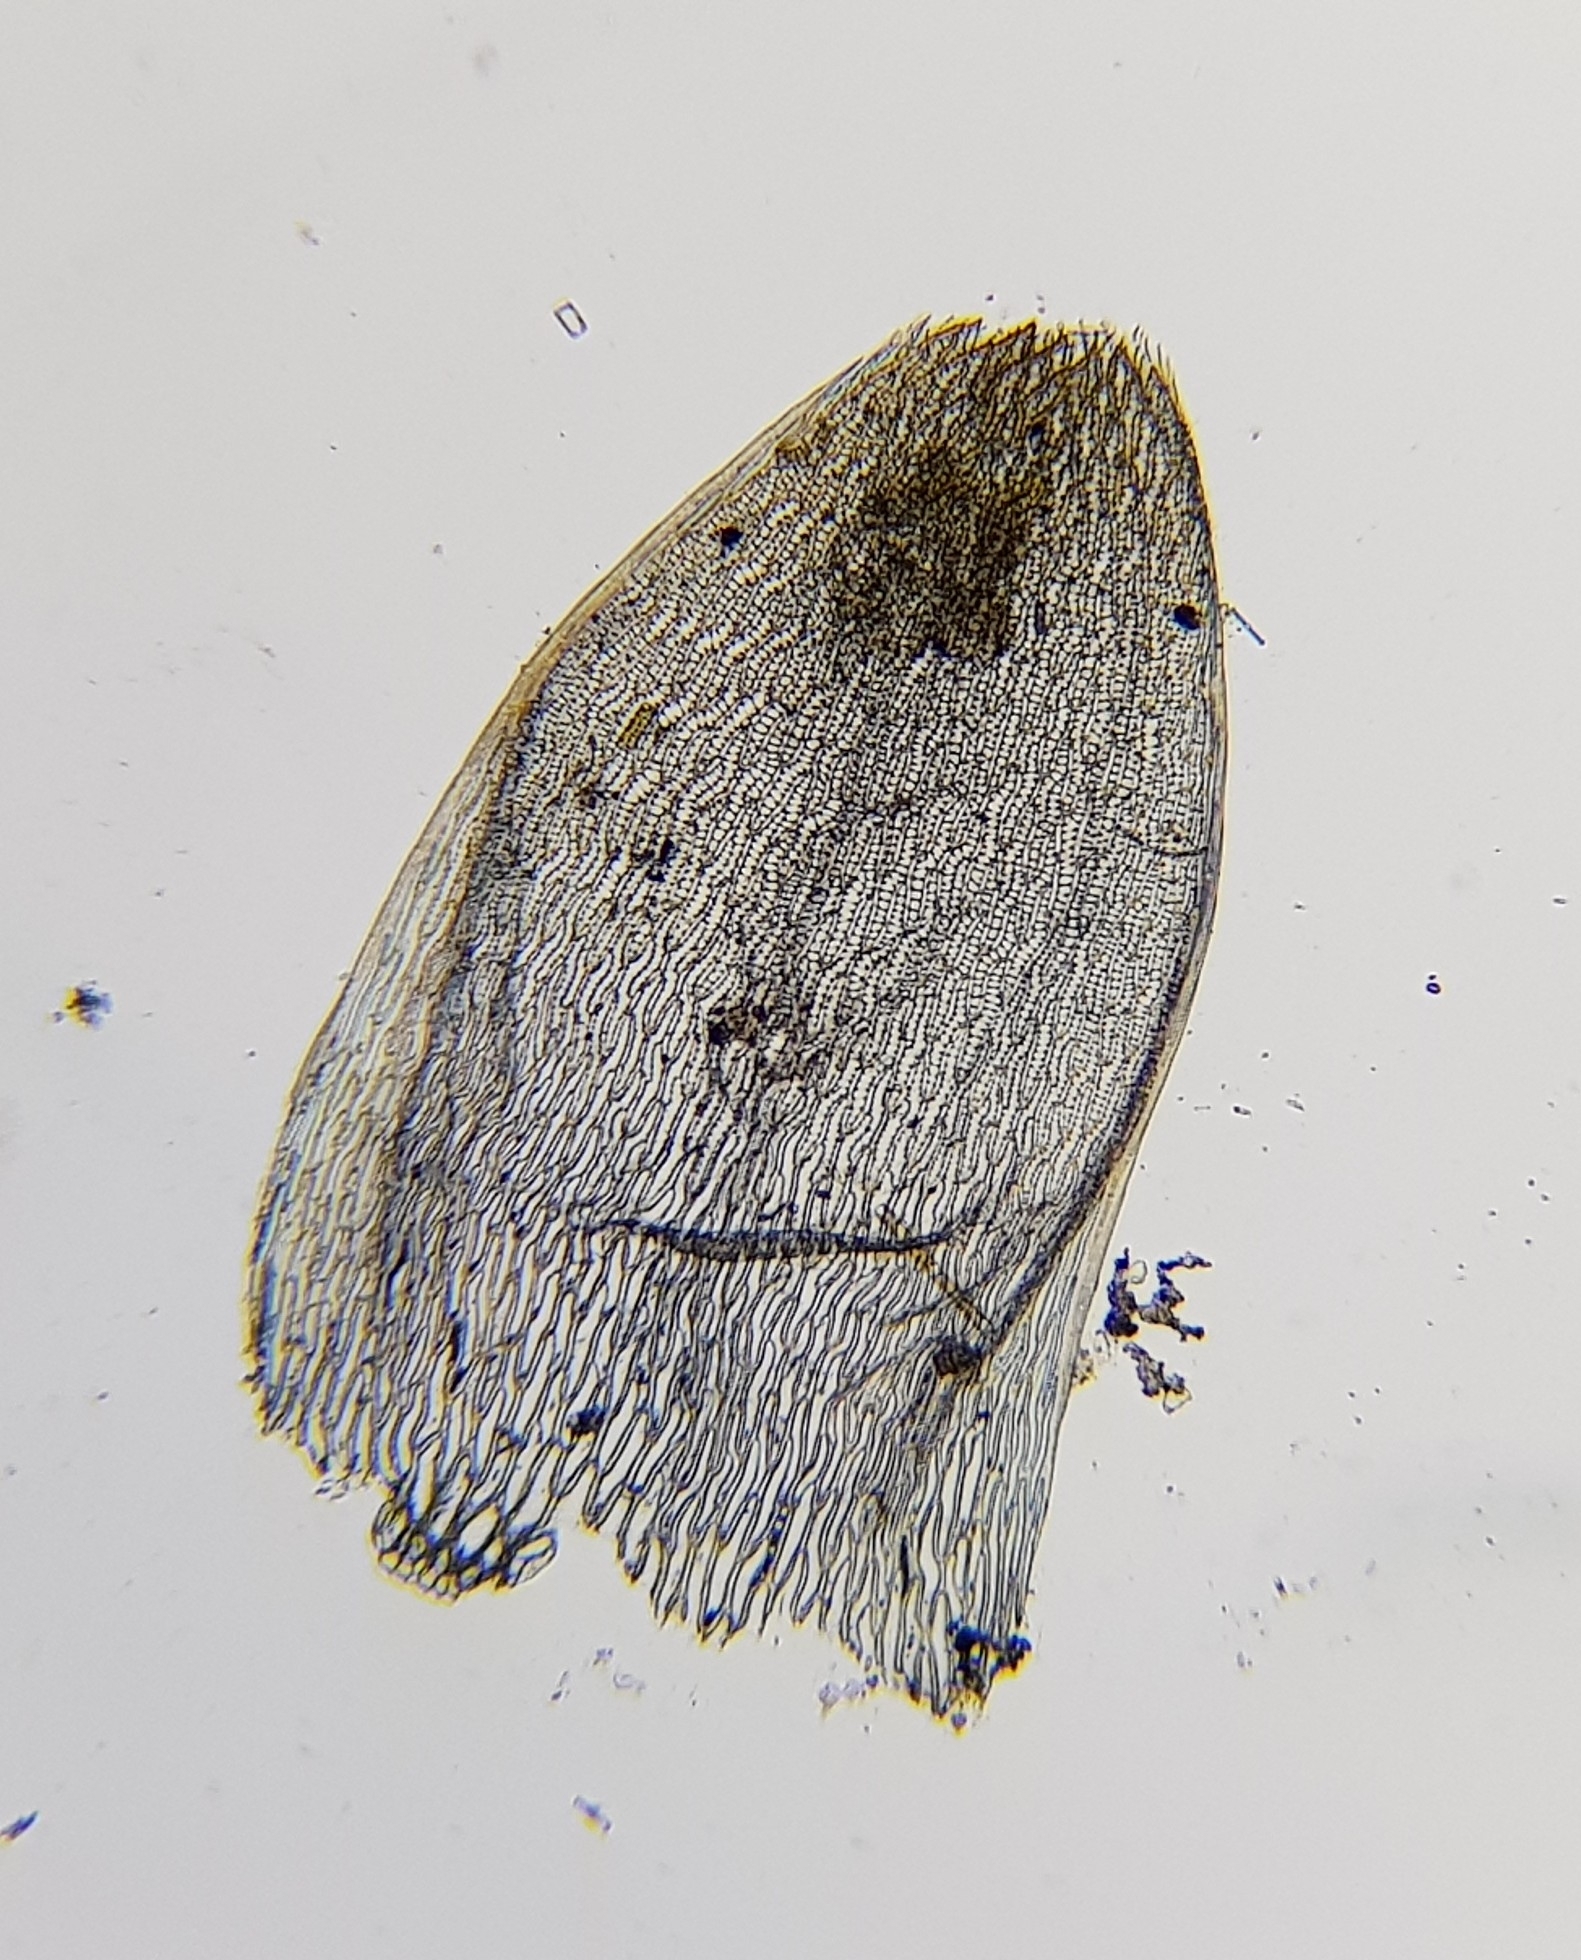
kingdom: Plantae
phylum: Bryophyta
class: Sphagnopsida
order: Sphagnales
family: Sphagnaceae
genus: Sphagnum
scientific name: Sphagnum denticulatum
